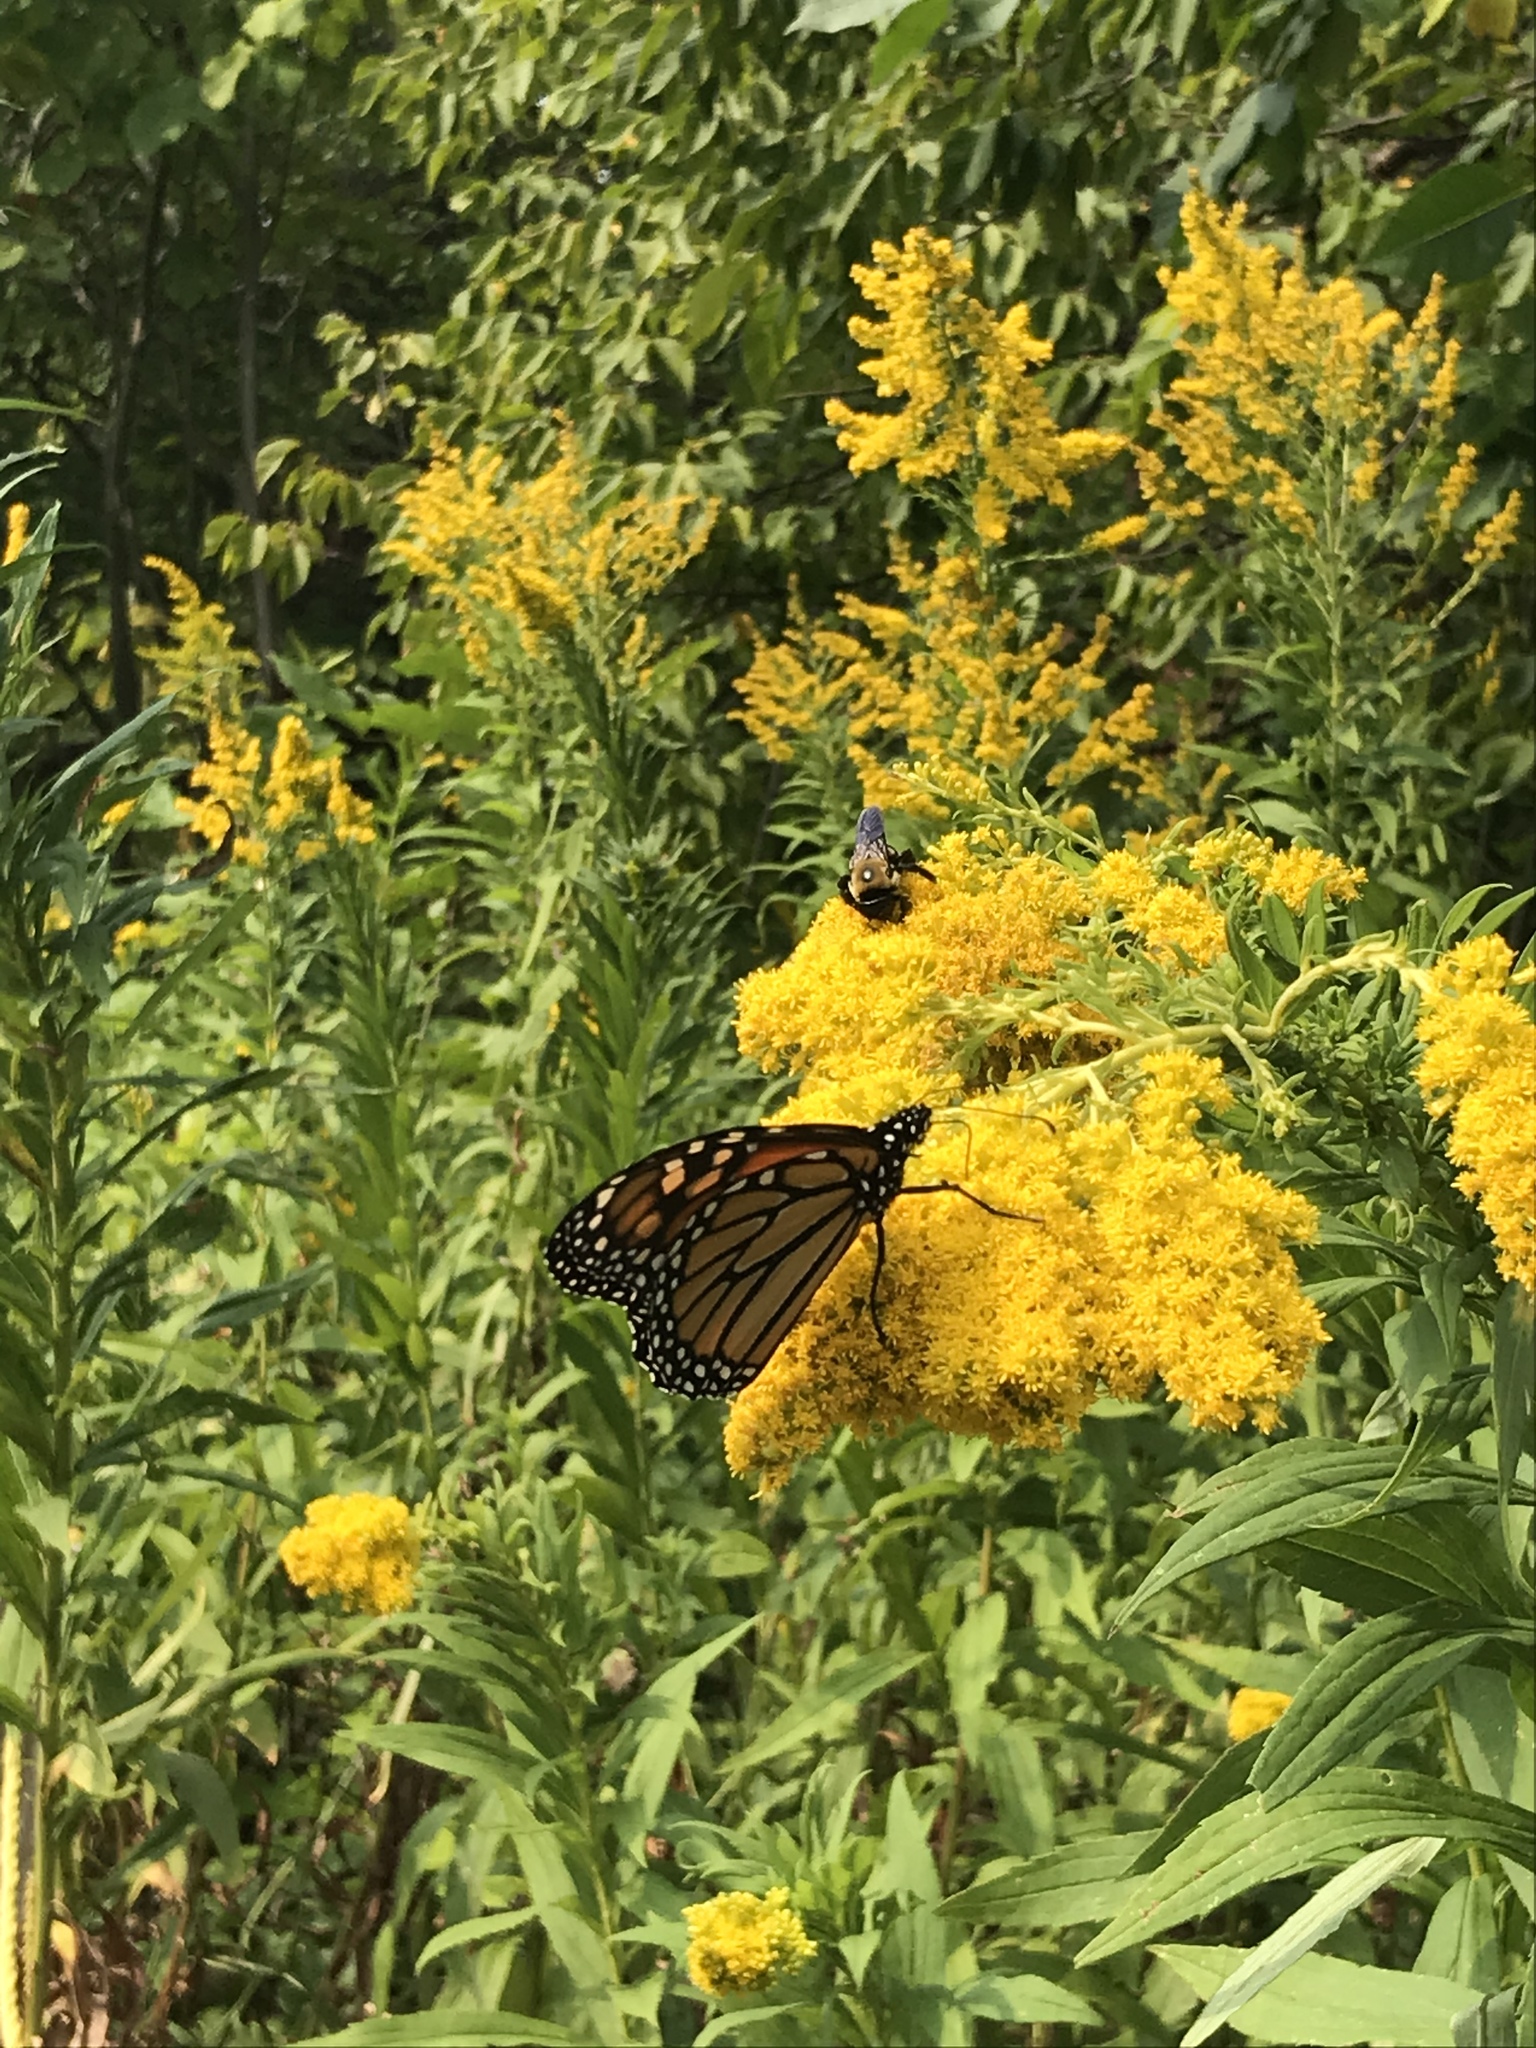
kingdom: Animalia
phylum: Arthropoda
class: Insecta
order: Lepidoptera
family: Nymphalidae
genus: Danaus
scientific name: Danaus plexippus
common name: Monarch
